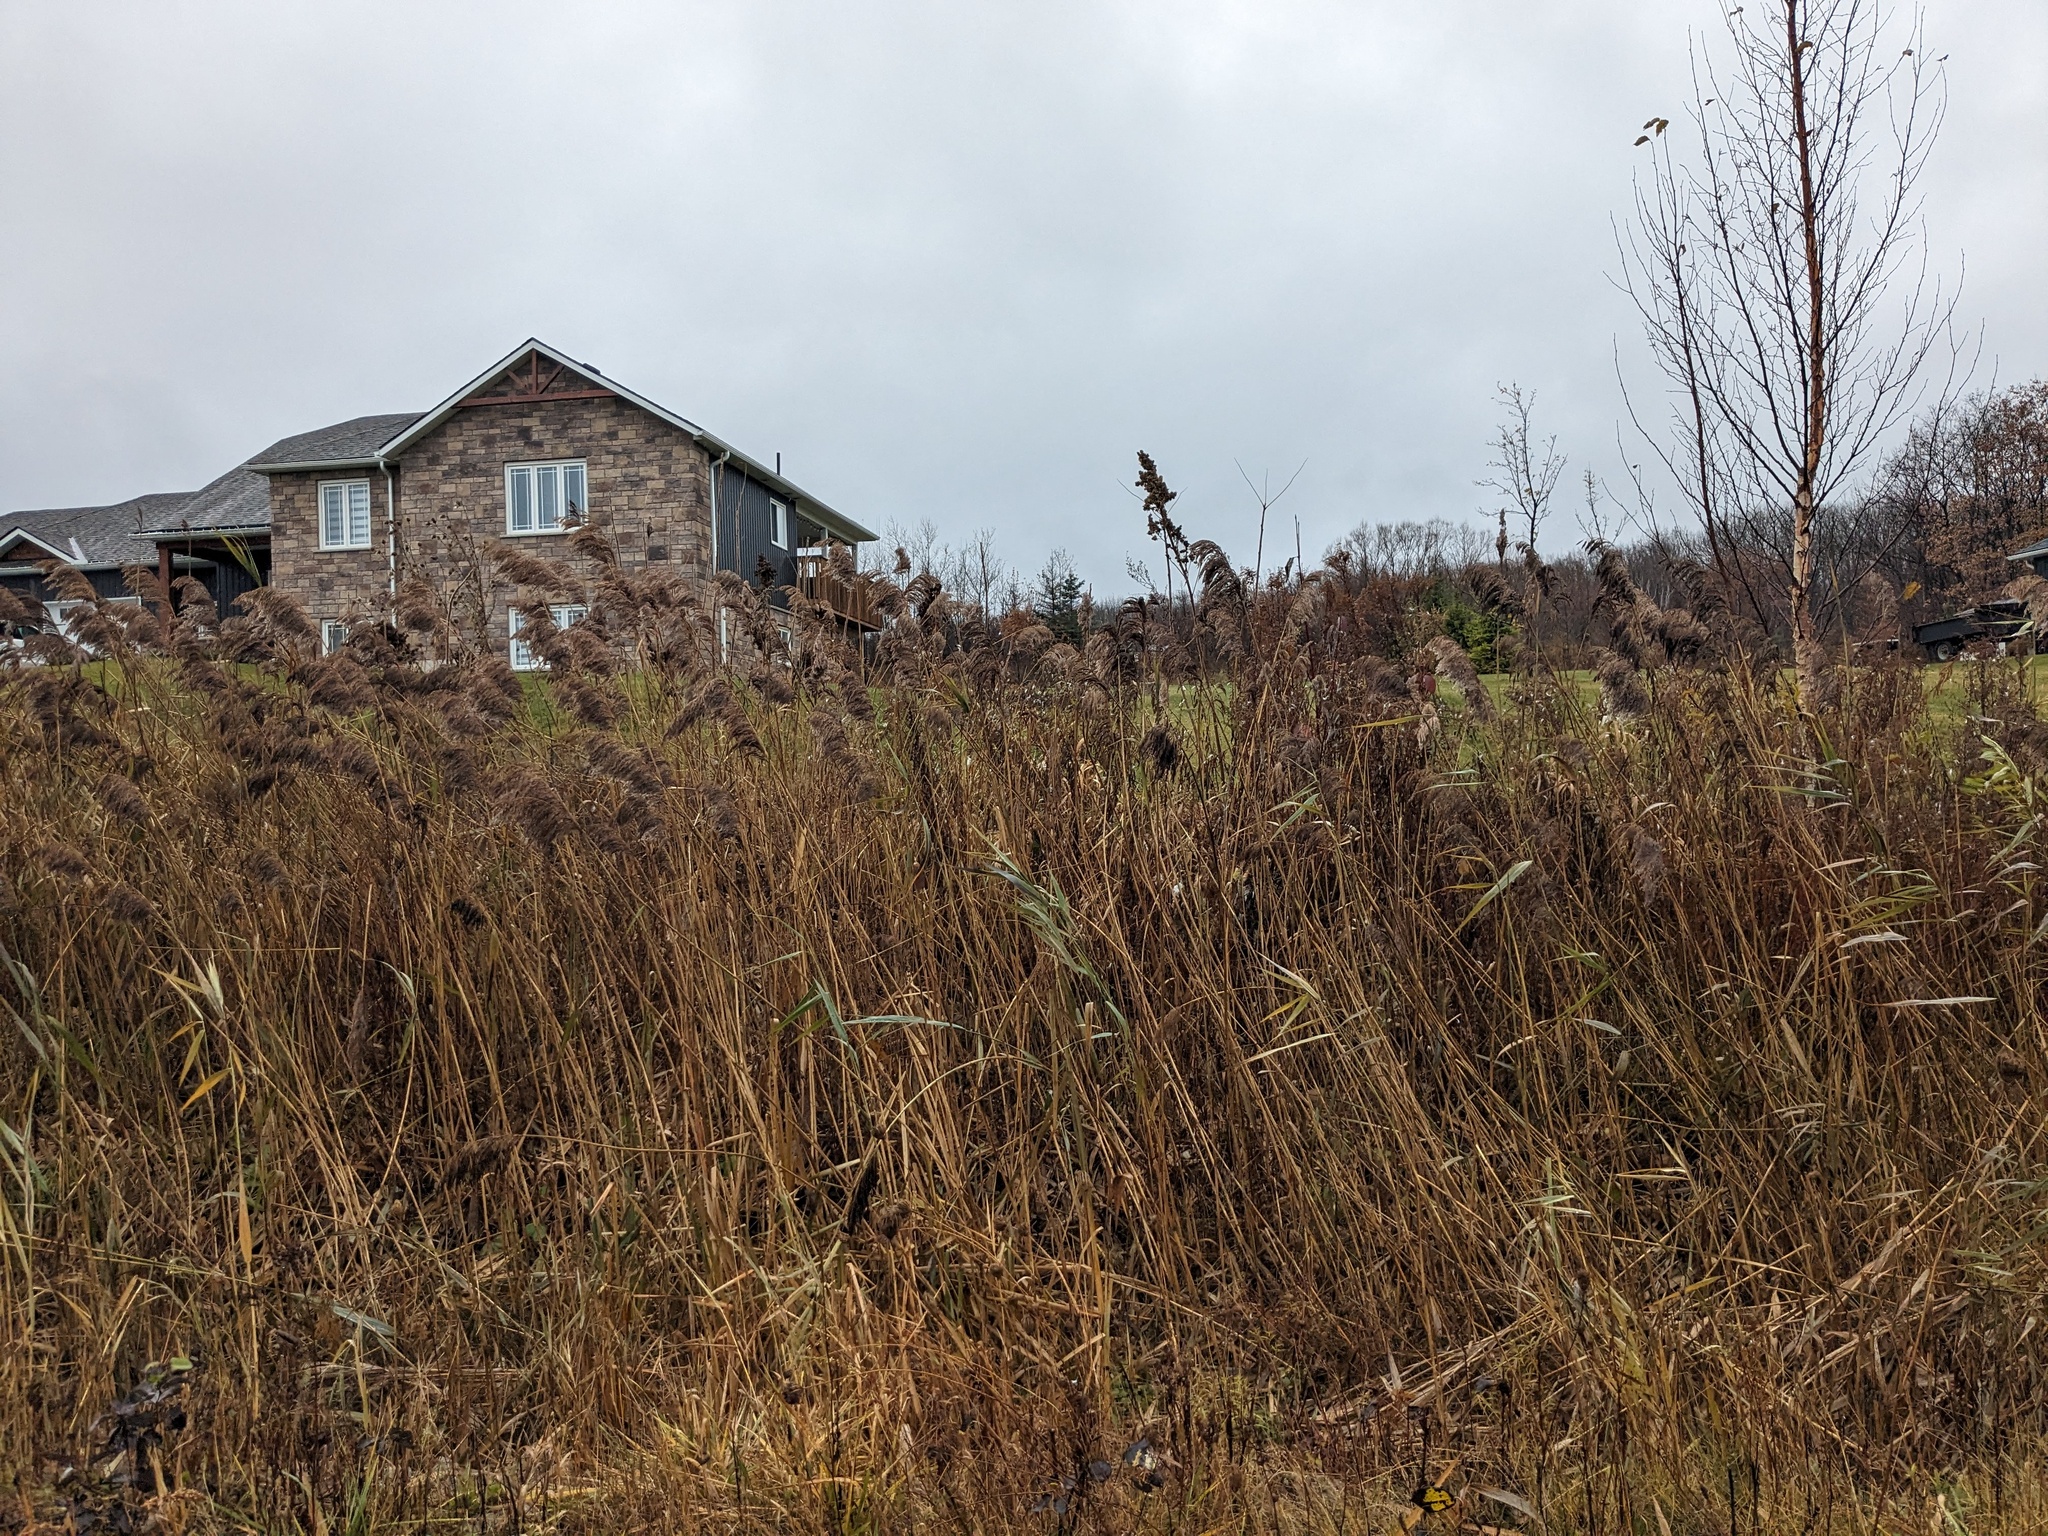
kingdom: Plantae
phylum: Tracheophyta
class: Liliopsida
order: Poales
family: Poaceae
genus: Phragmites
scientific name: Phragmites australis
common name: Common reed
